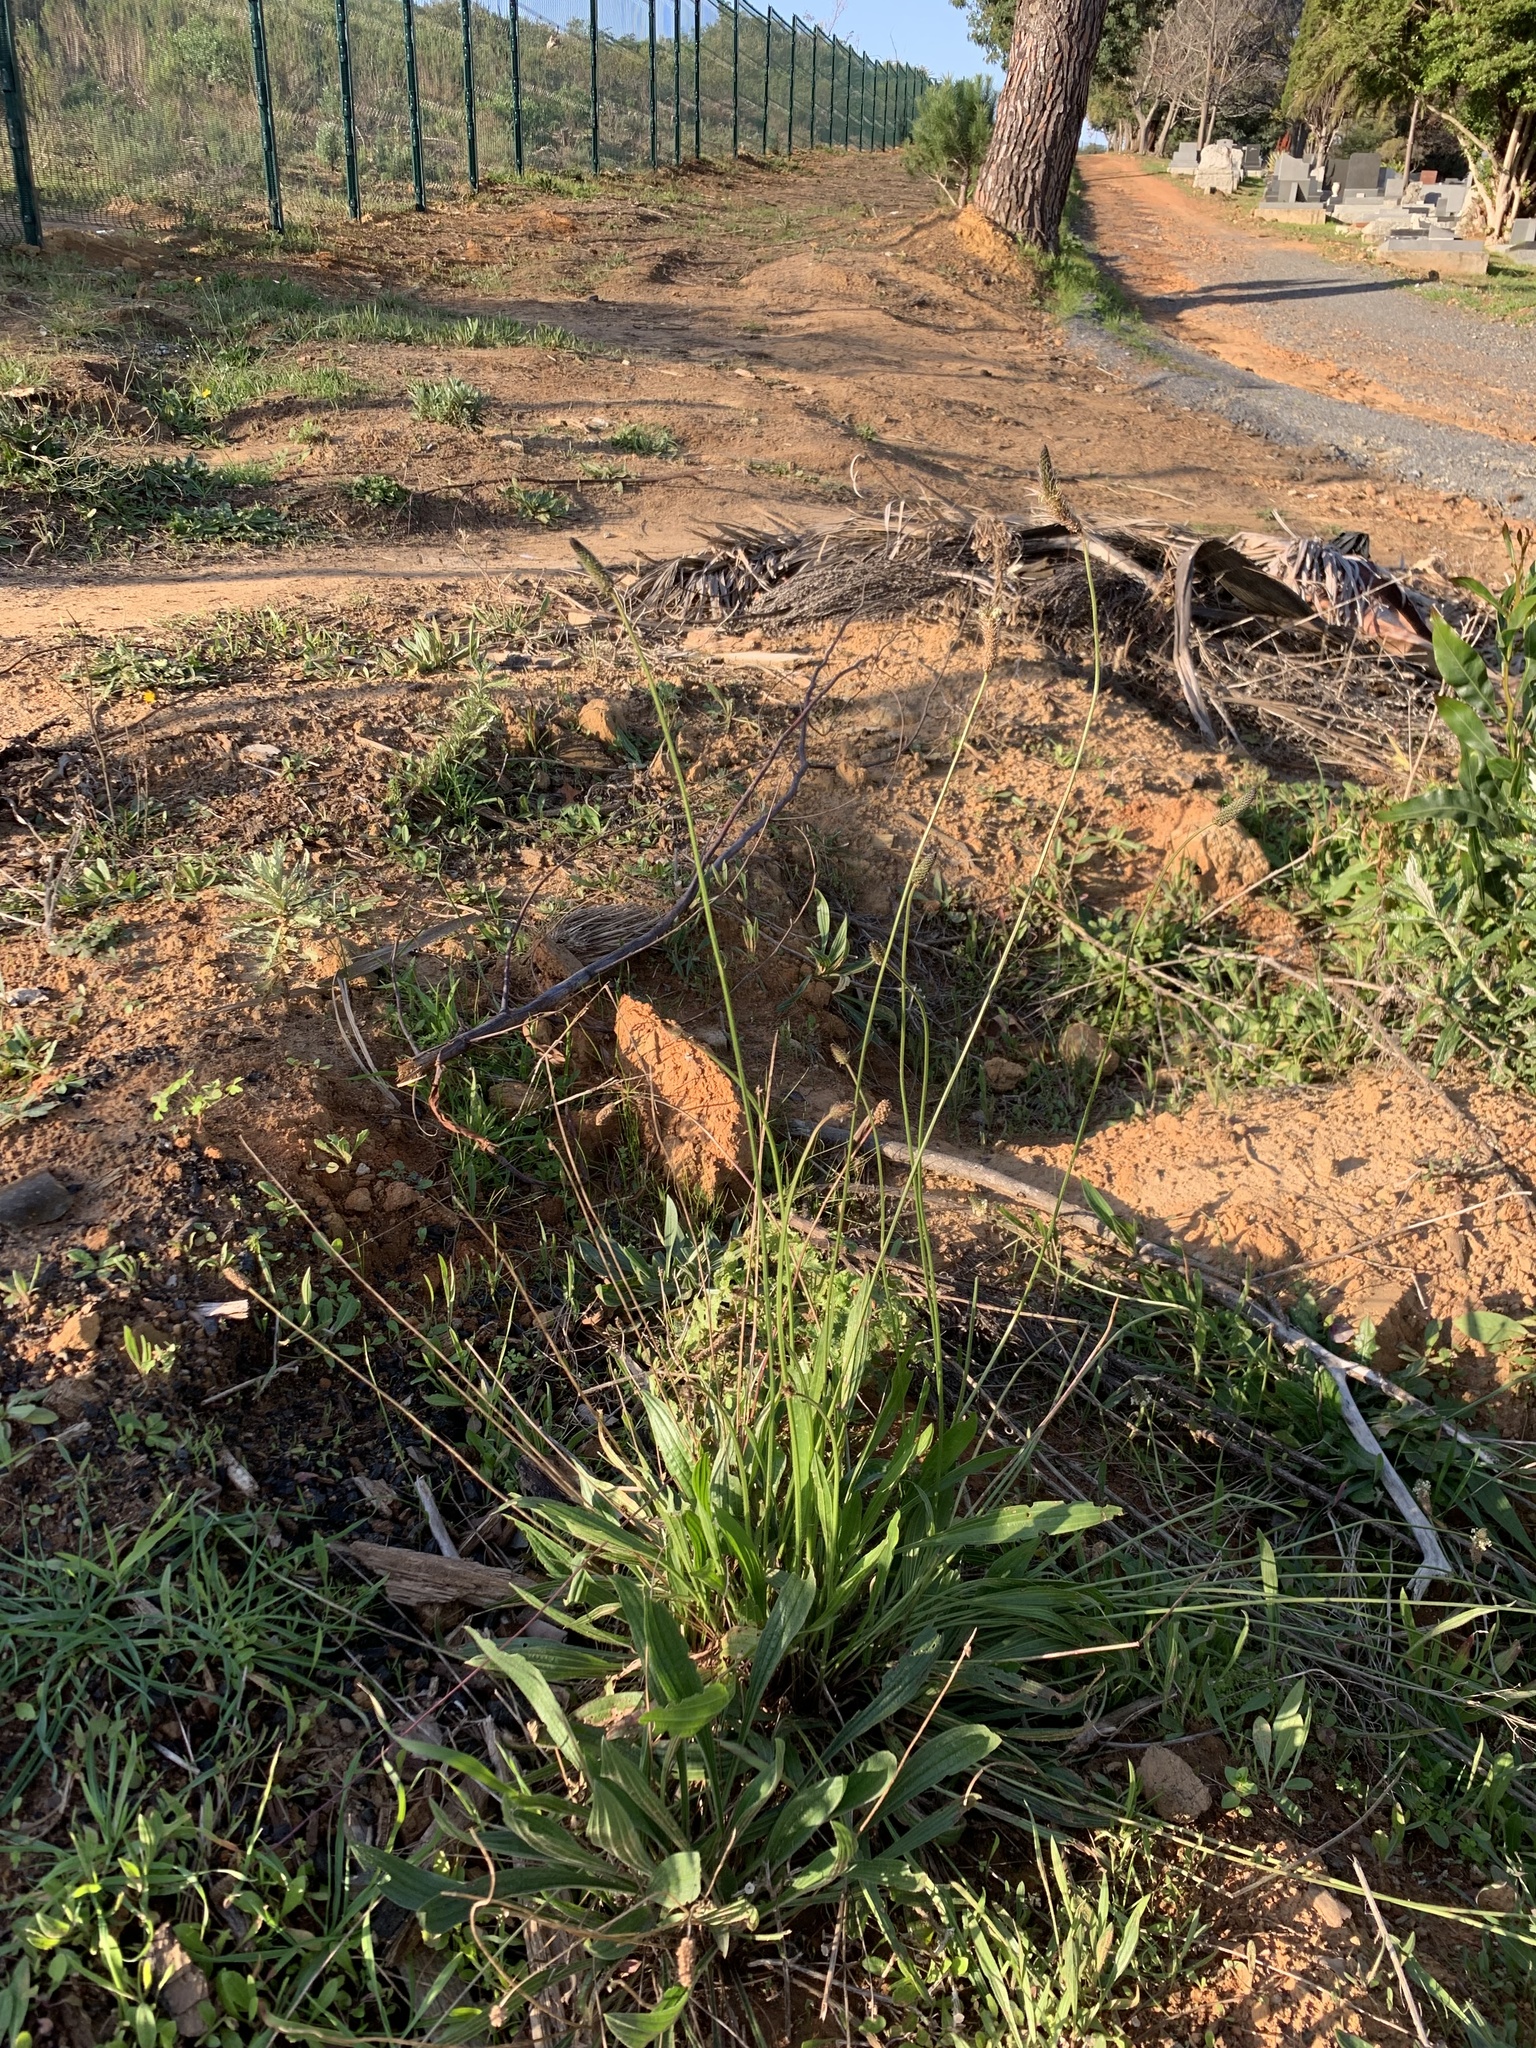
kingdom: Plantae
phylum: Tracheophyta
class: Magnoliopsida
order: Lamiales
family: Plantaginaceae
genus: Plantago
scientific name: Plantago lanceolata
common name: Ribwort plantain
